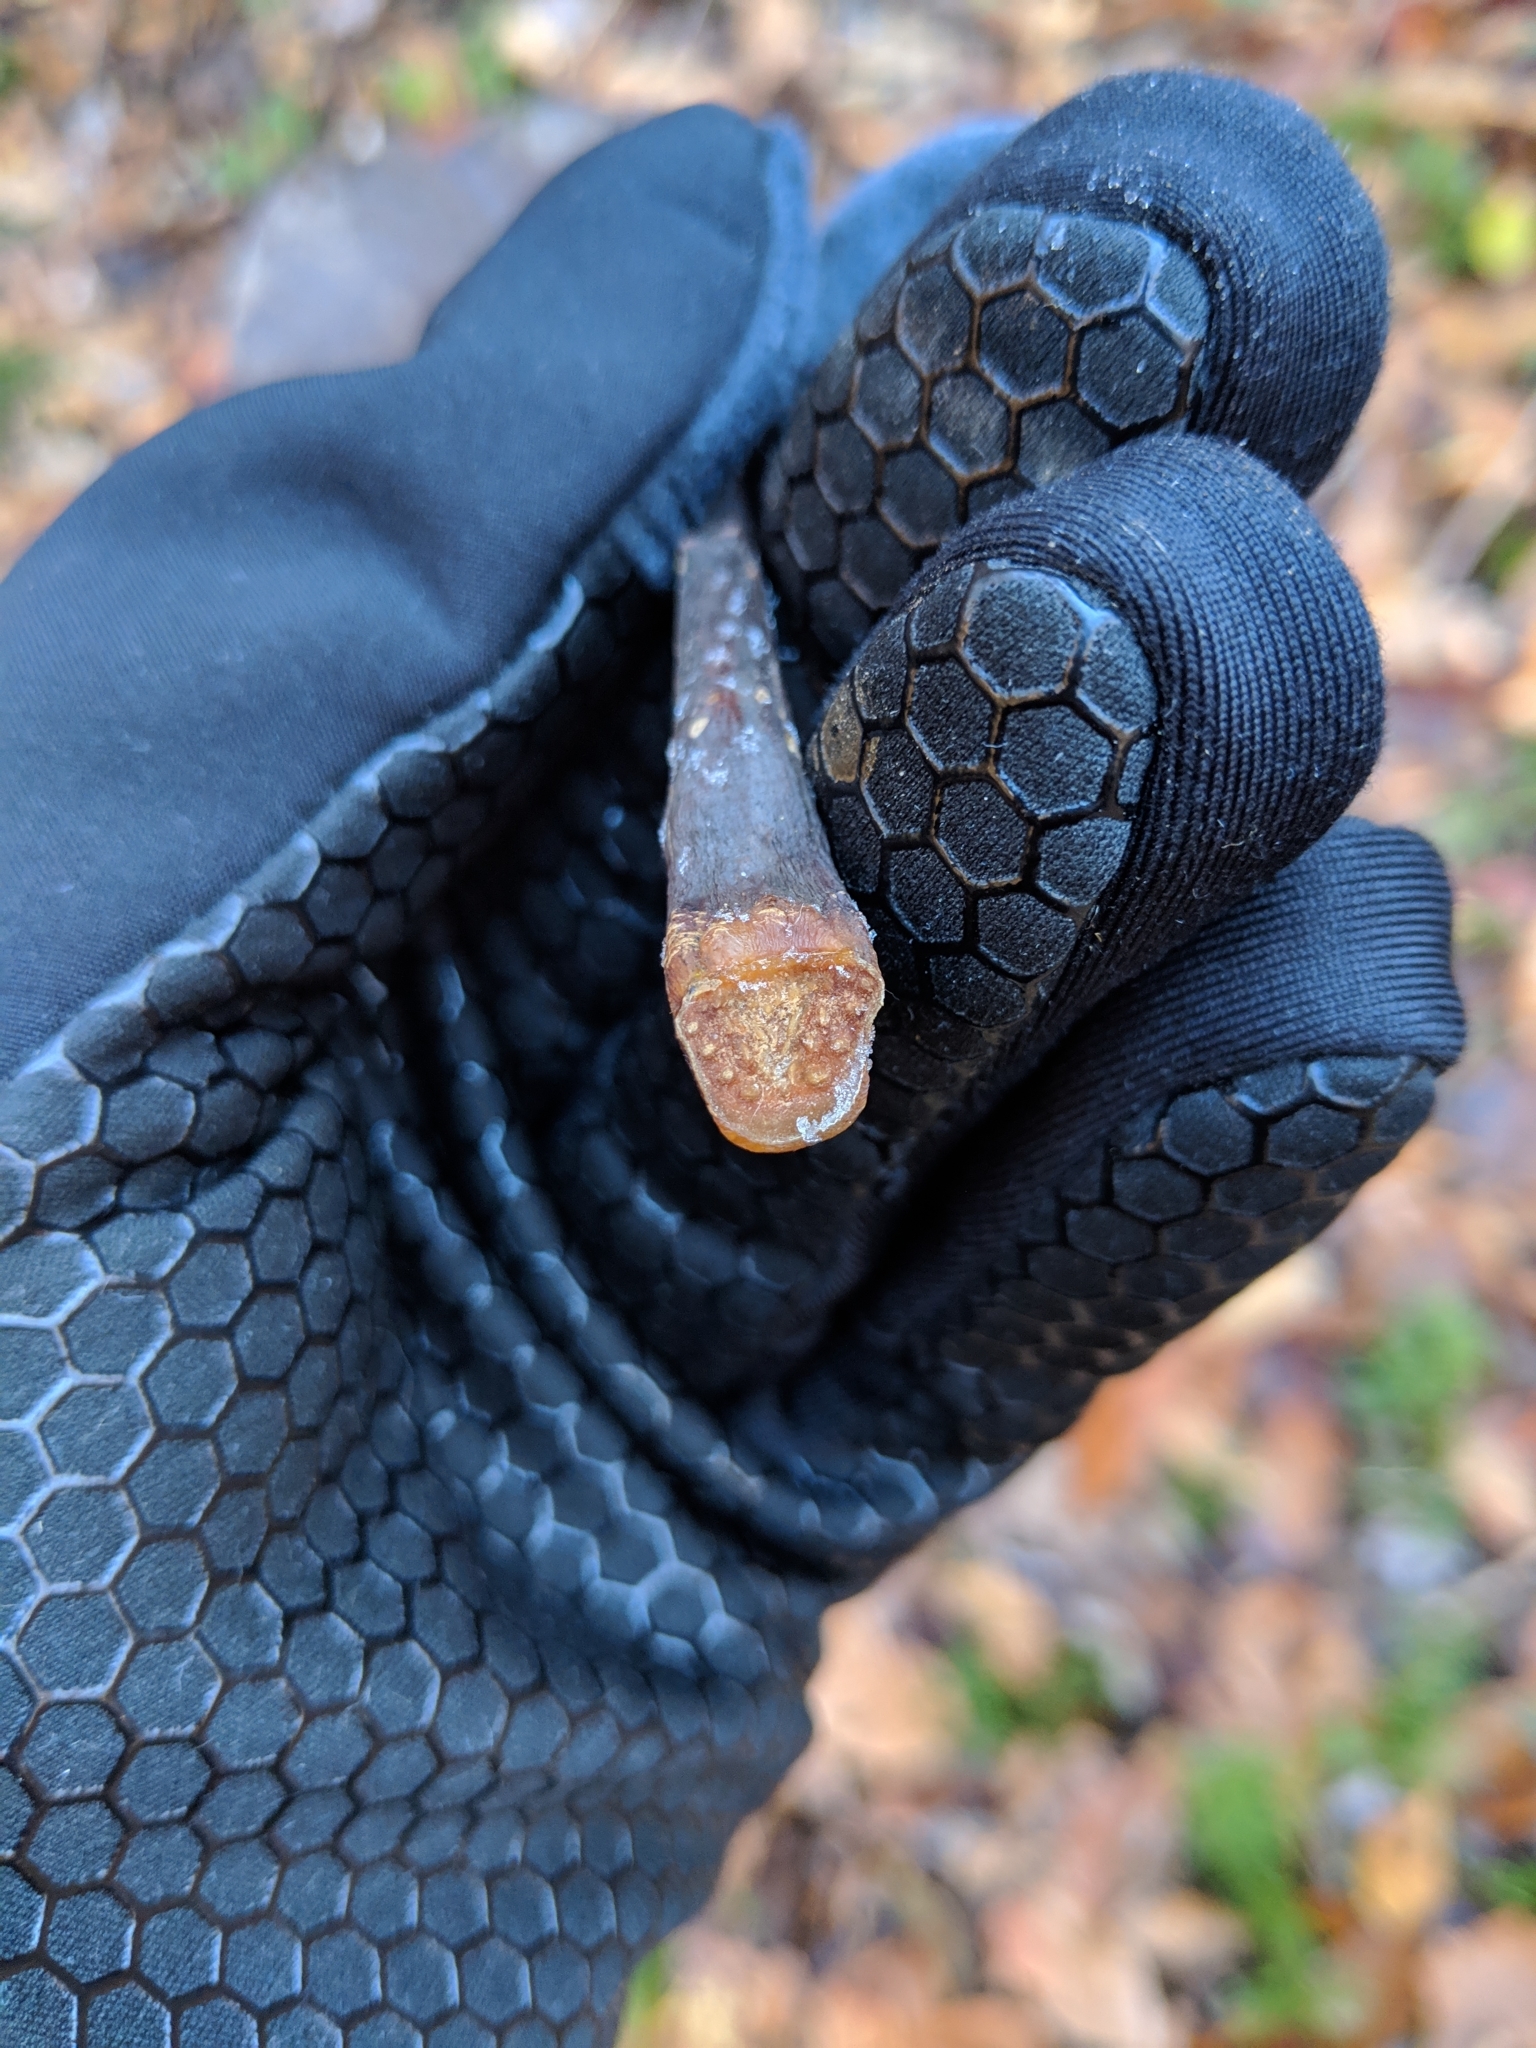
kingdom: Plantae
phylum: Tracheophyta
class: Magnoliopsida
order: Magnoliales
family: Magnoliaceae
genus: Magnolia
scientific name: Magnolia tripetala
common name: Umbrella magnolia
